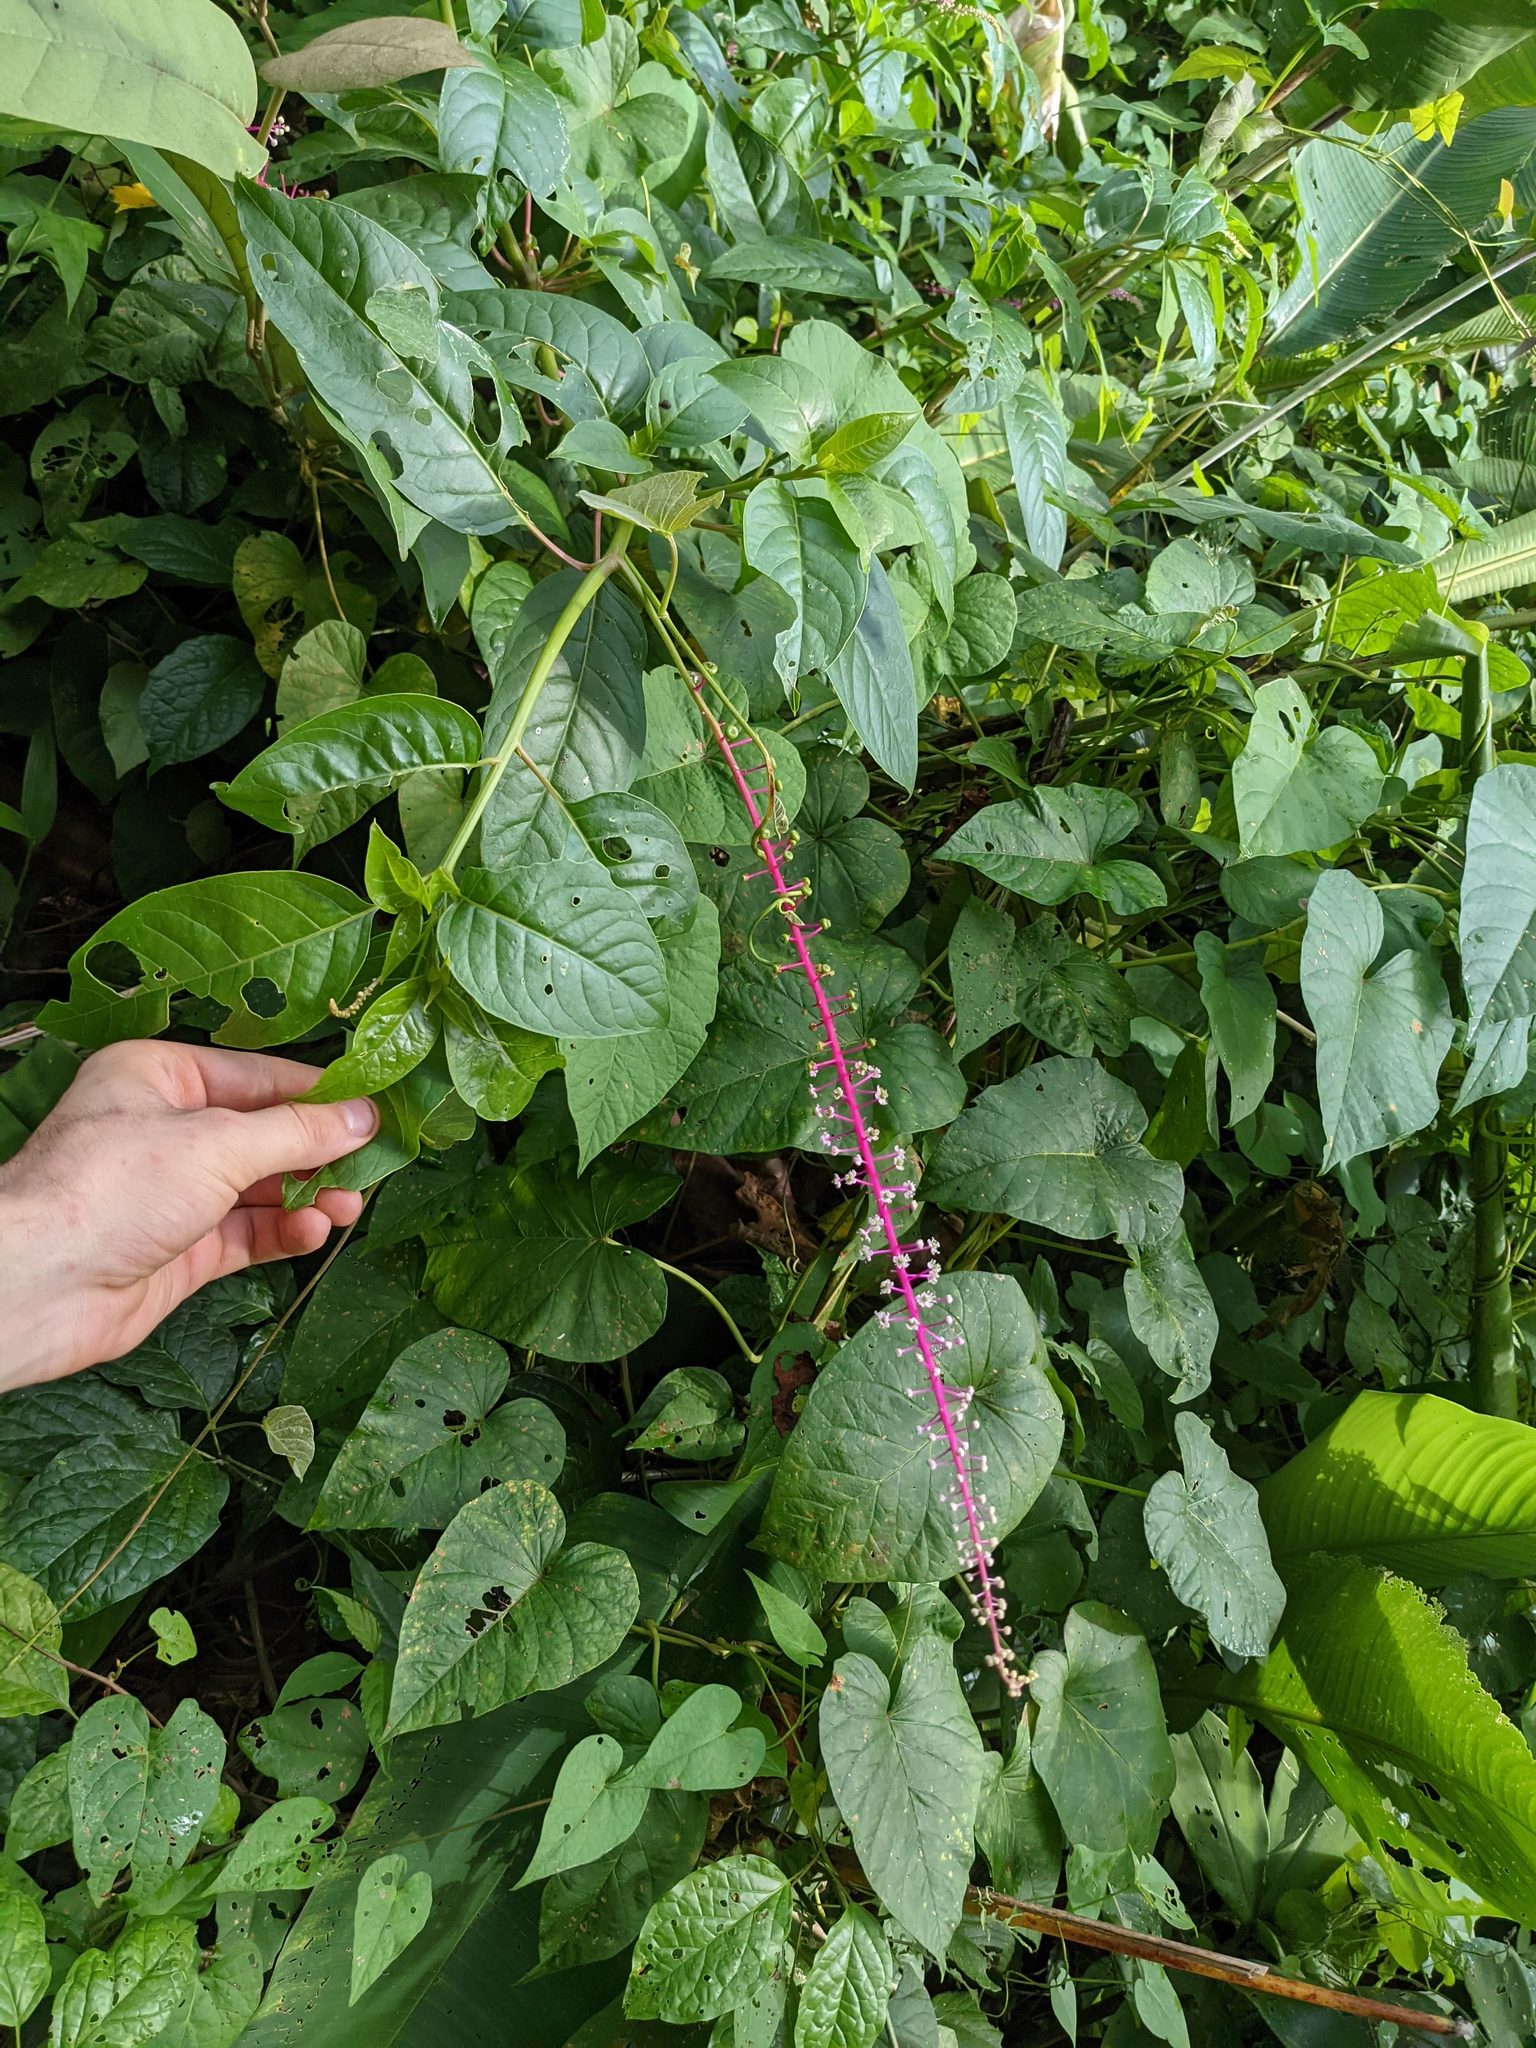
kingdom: Plantae
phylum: Tracheophyta
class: Magnoliopsida
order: Caryophyllales
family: Phytolaccaceae
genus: Phytolacca
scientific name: Phytolacca rivinoides
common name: Venezuelan pokeweed
